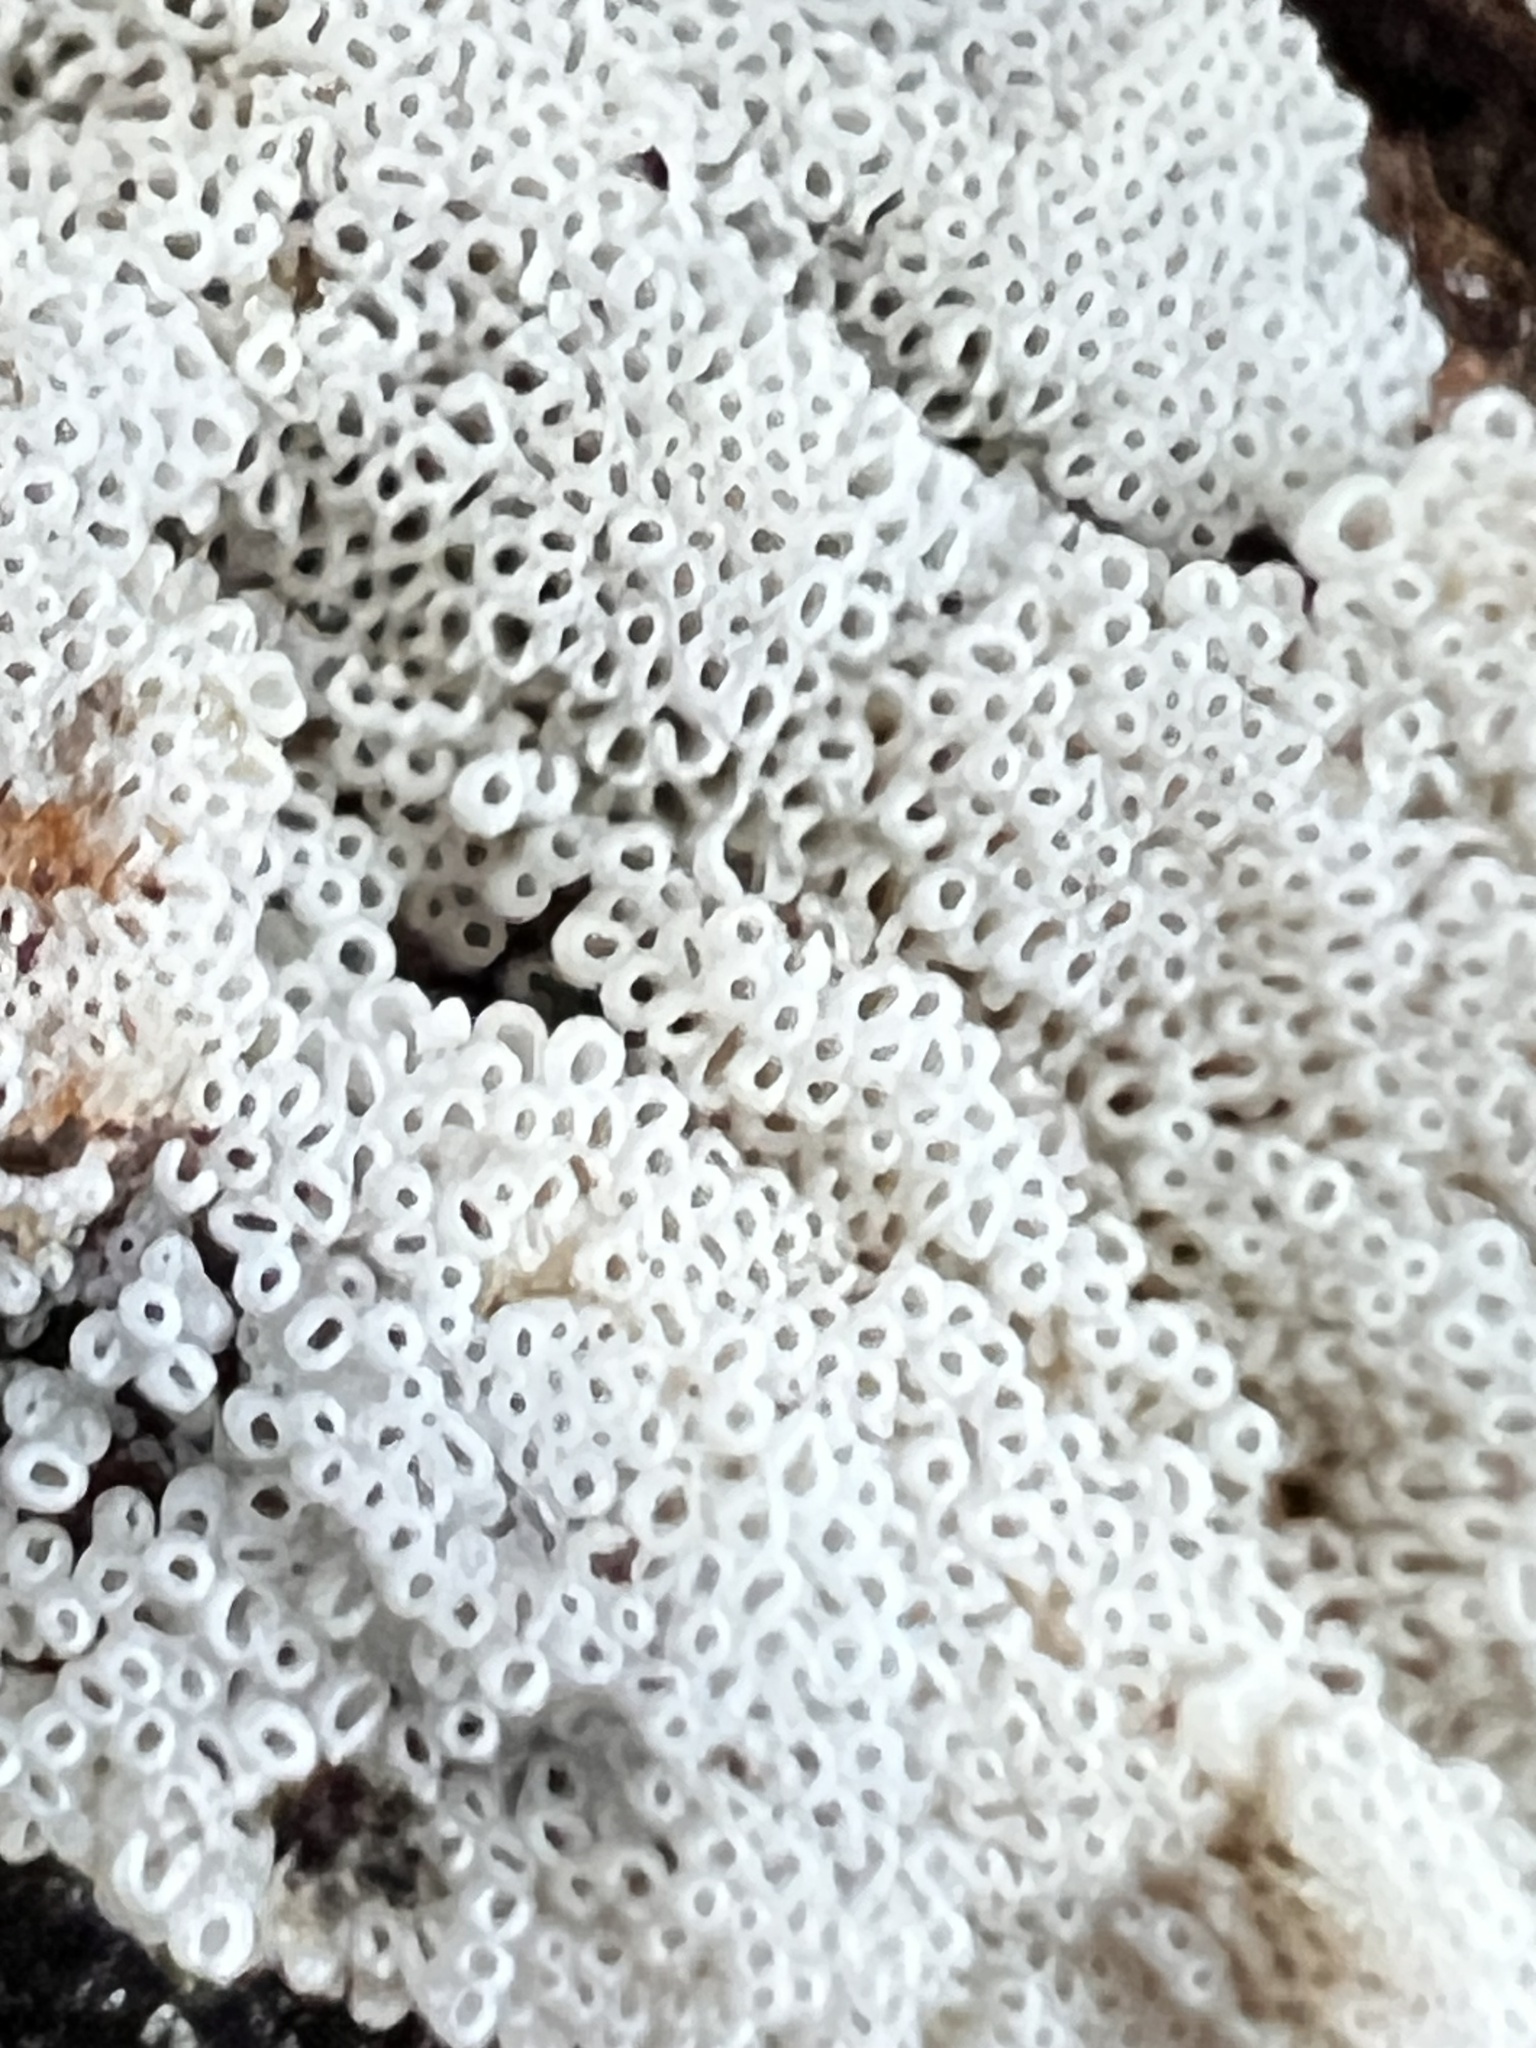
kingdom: Fungi
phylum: Basidiomycota
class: Agaricomycetes
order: Agaricales
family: Marasmiaceae
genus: Henningsomyces
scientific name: Henningsomyces candidus
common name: White tubelet
